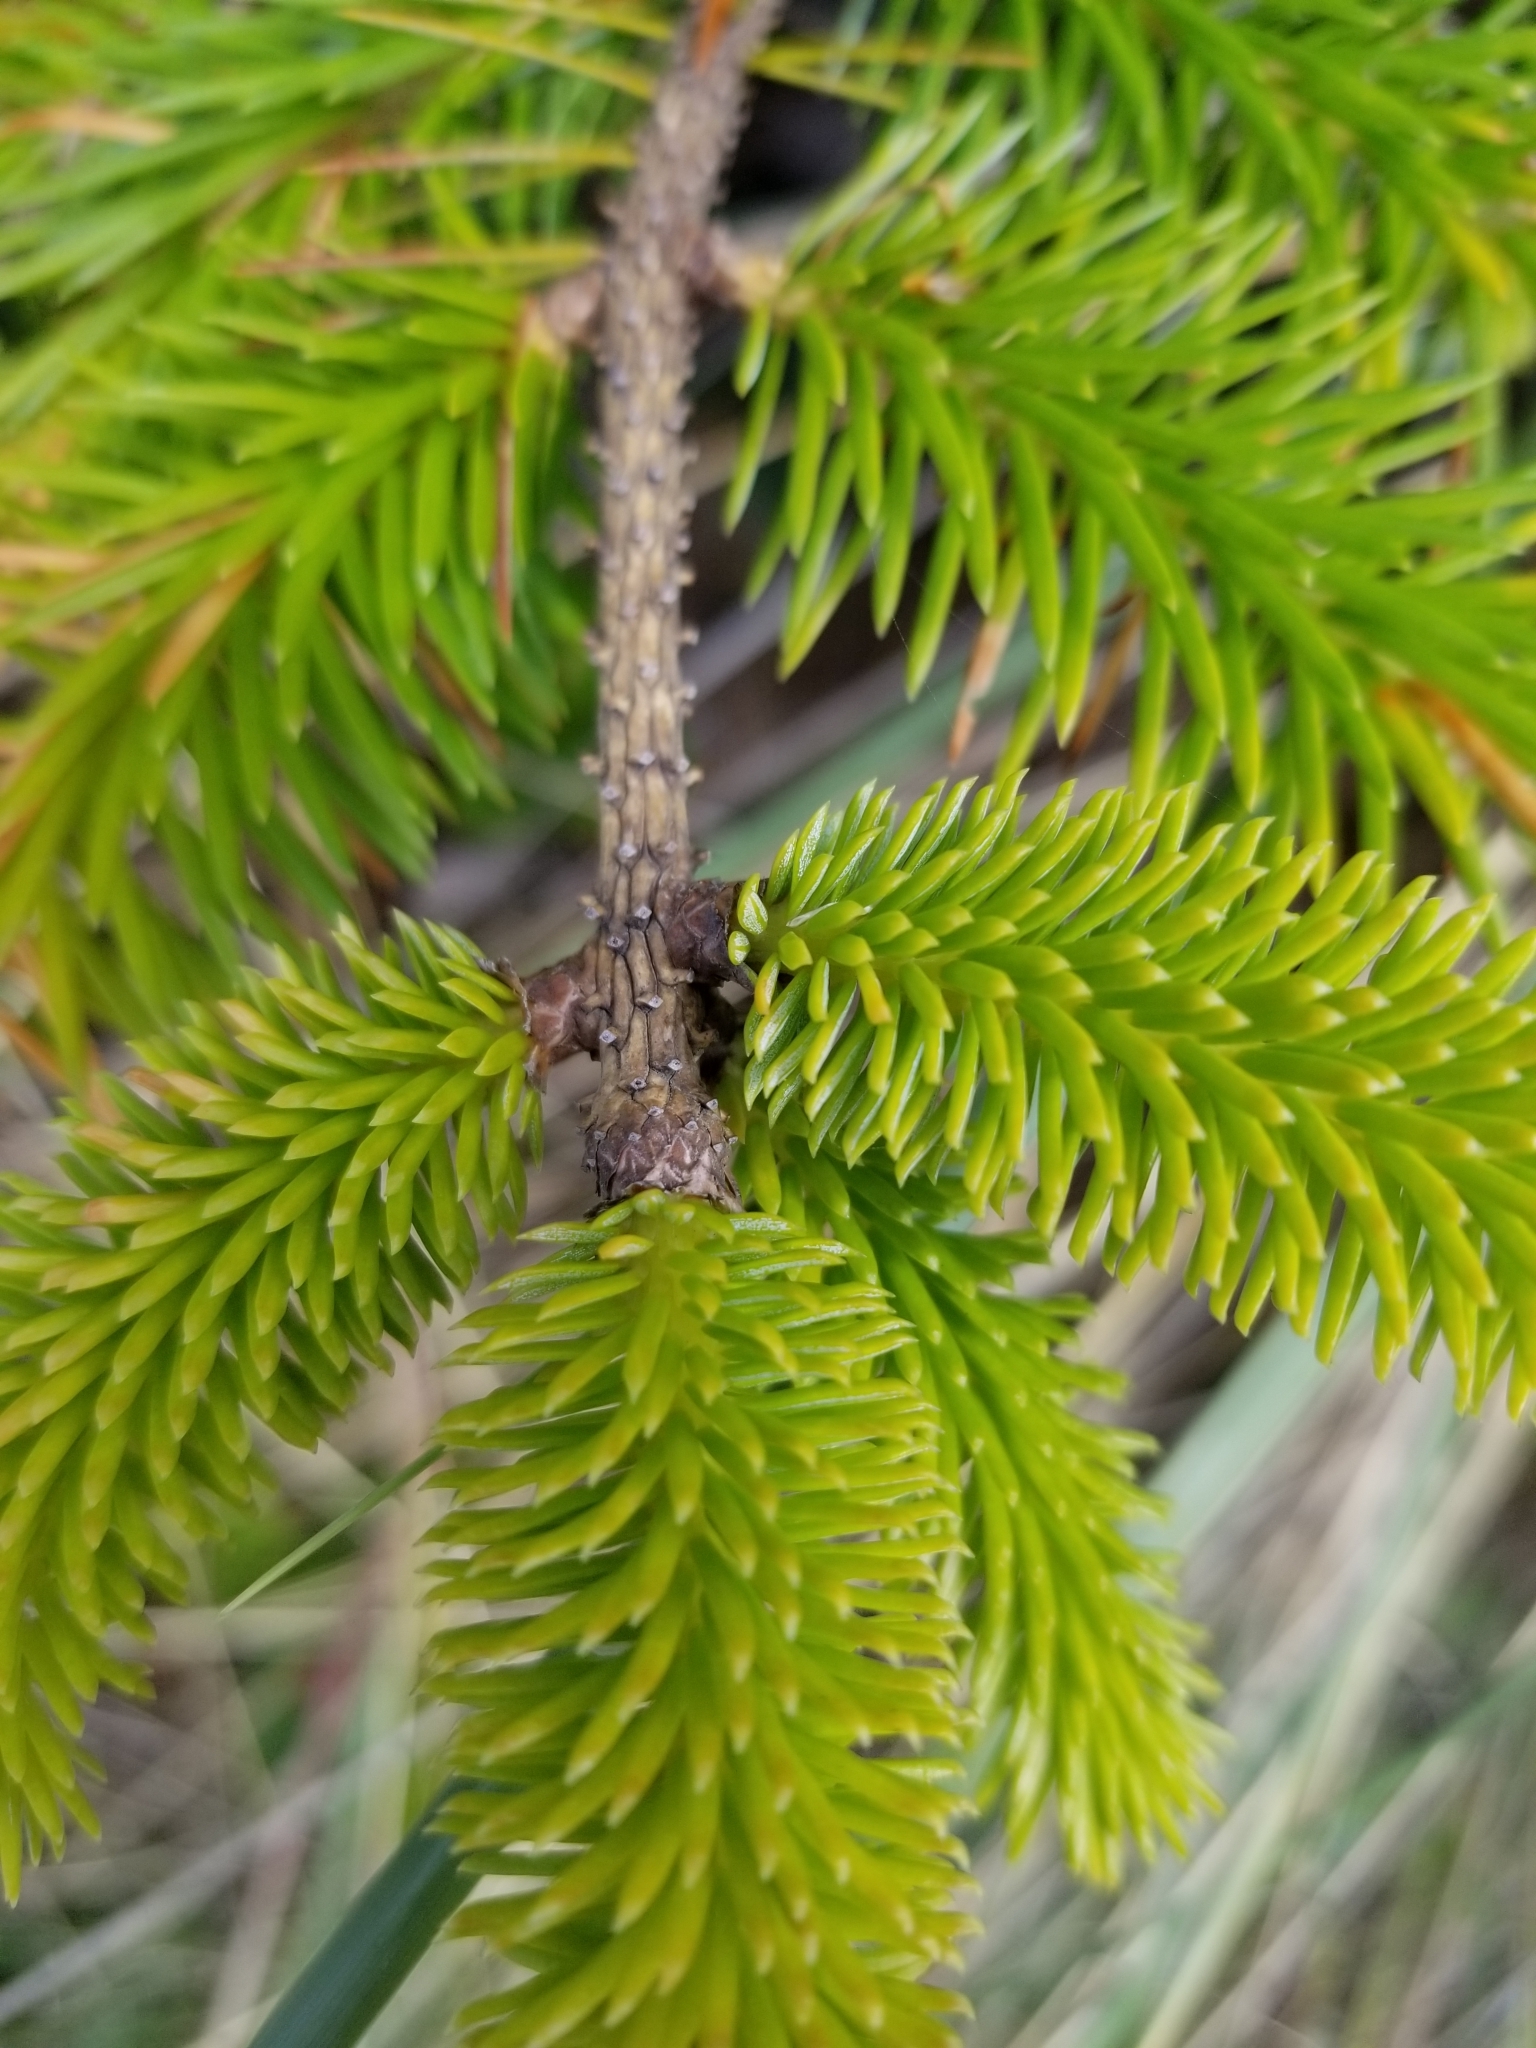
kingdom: Plantae
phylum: Tracheophyta
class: Pinopsida
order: Pinales
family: Pinaceae
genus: Picea
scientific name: Picea sitchensis
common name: Sitka spruce
